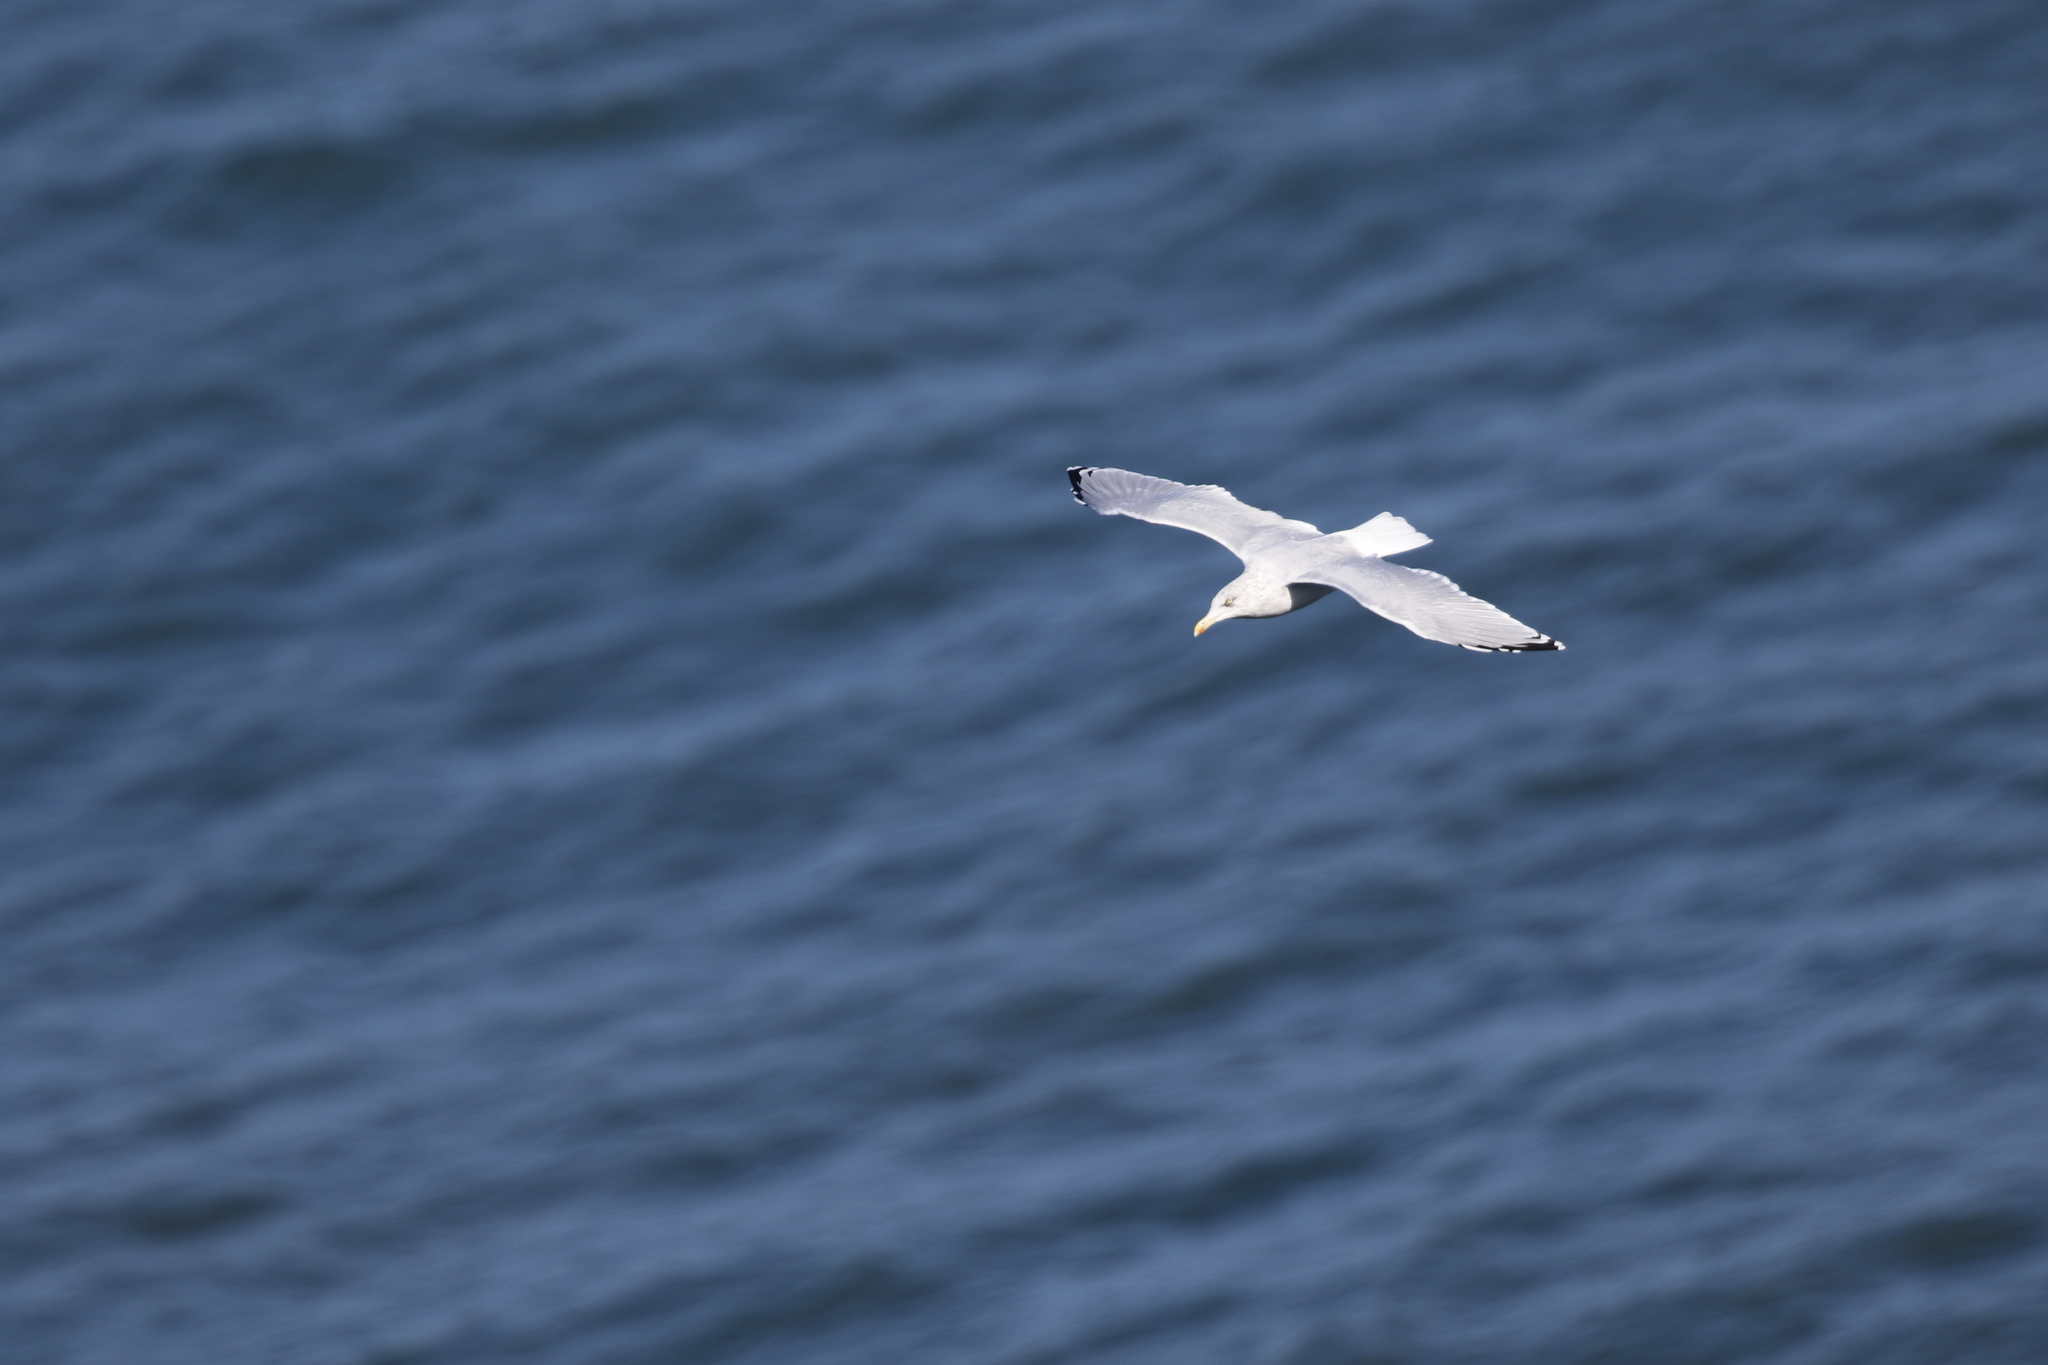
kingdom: Animalia
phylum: Chordata
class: Aves
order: Charadriiformes
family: Laridae
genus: Larus
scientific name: Larus argentatus
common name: Herring gull
